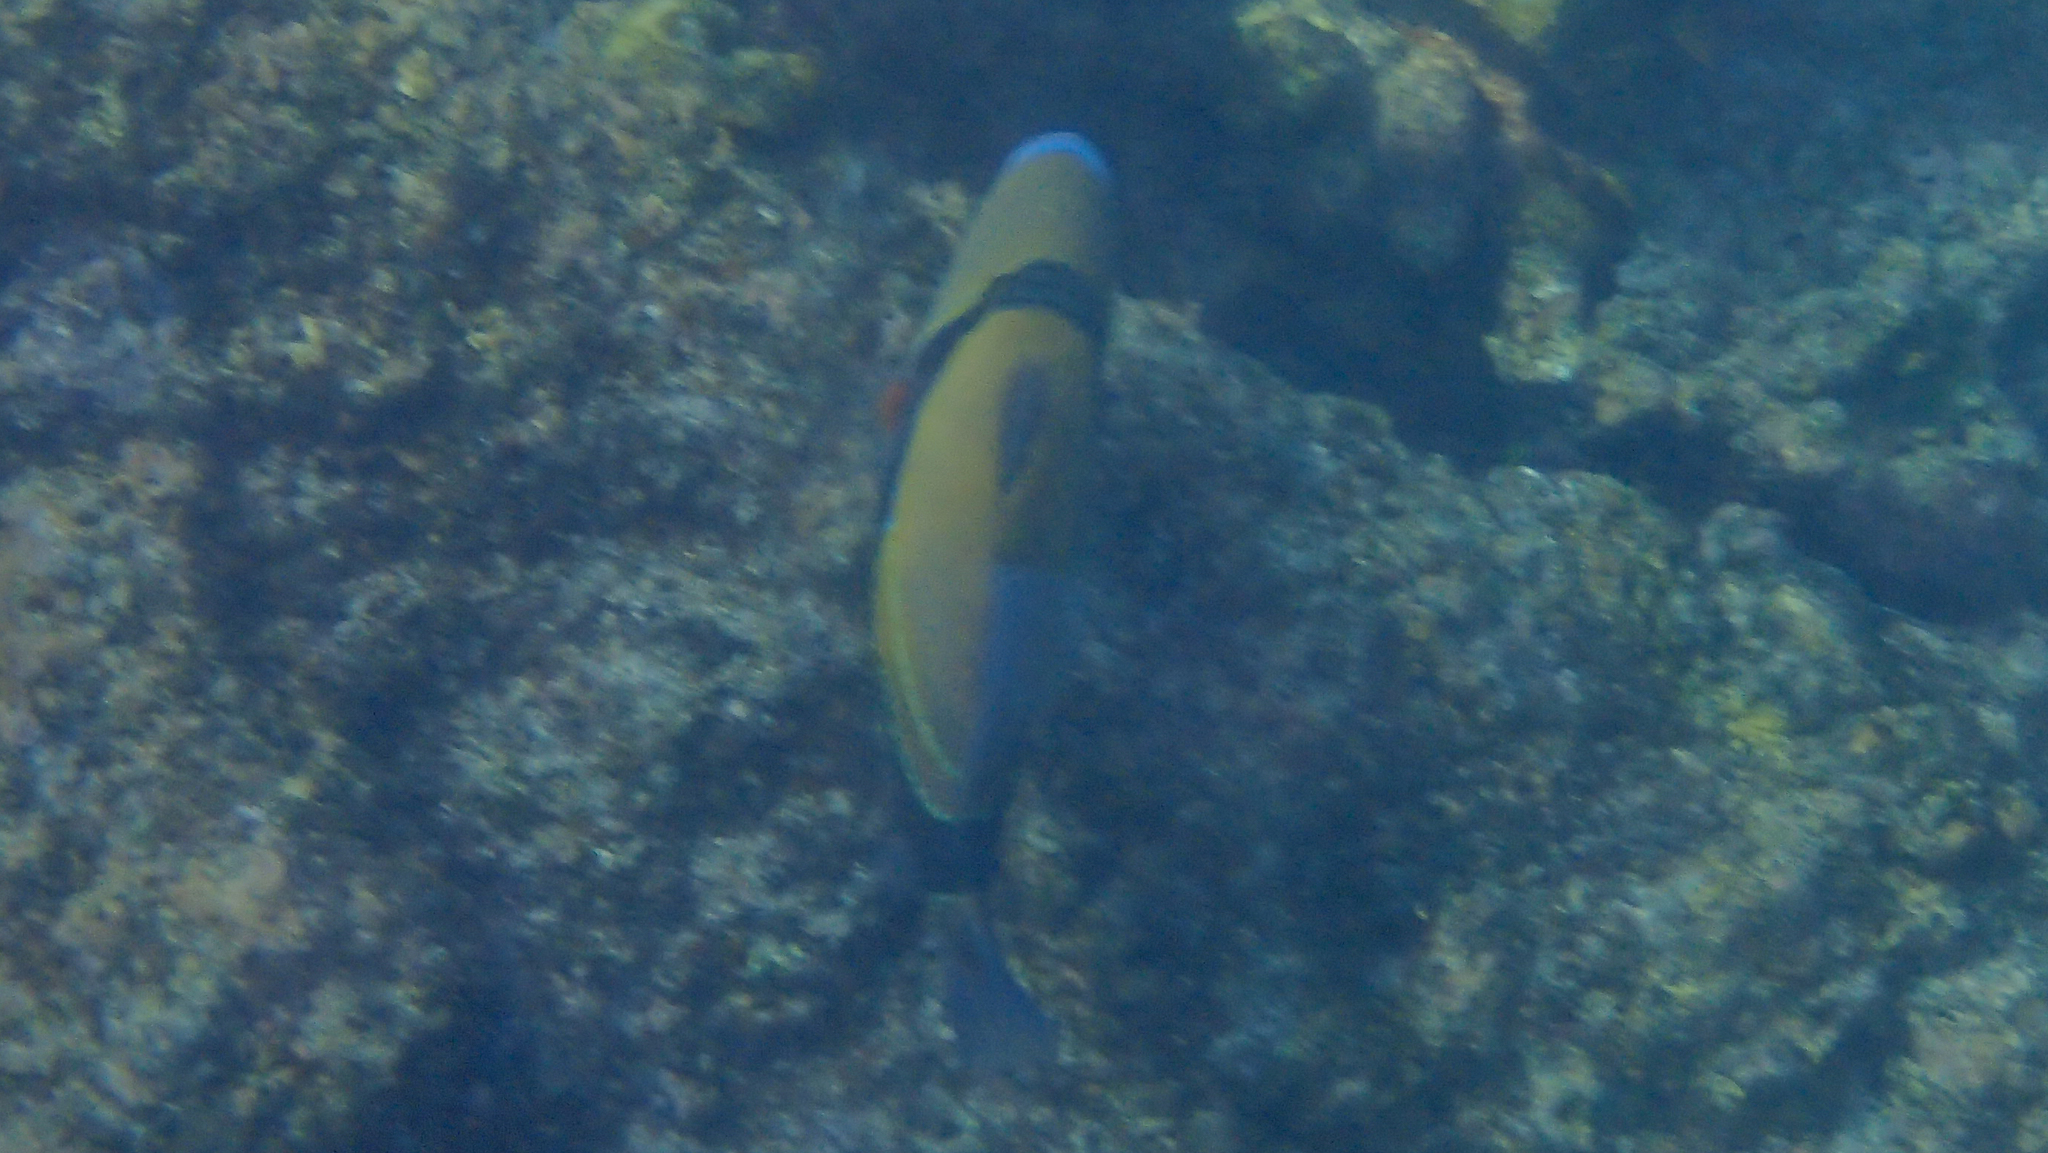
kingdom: Animalia
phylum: Chordata
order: Tetraodontiformes
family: Balistidae
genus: Rhinecanthus
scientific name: Rhinecanthus rectangulus
